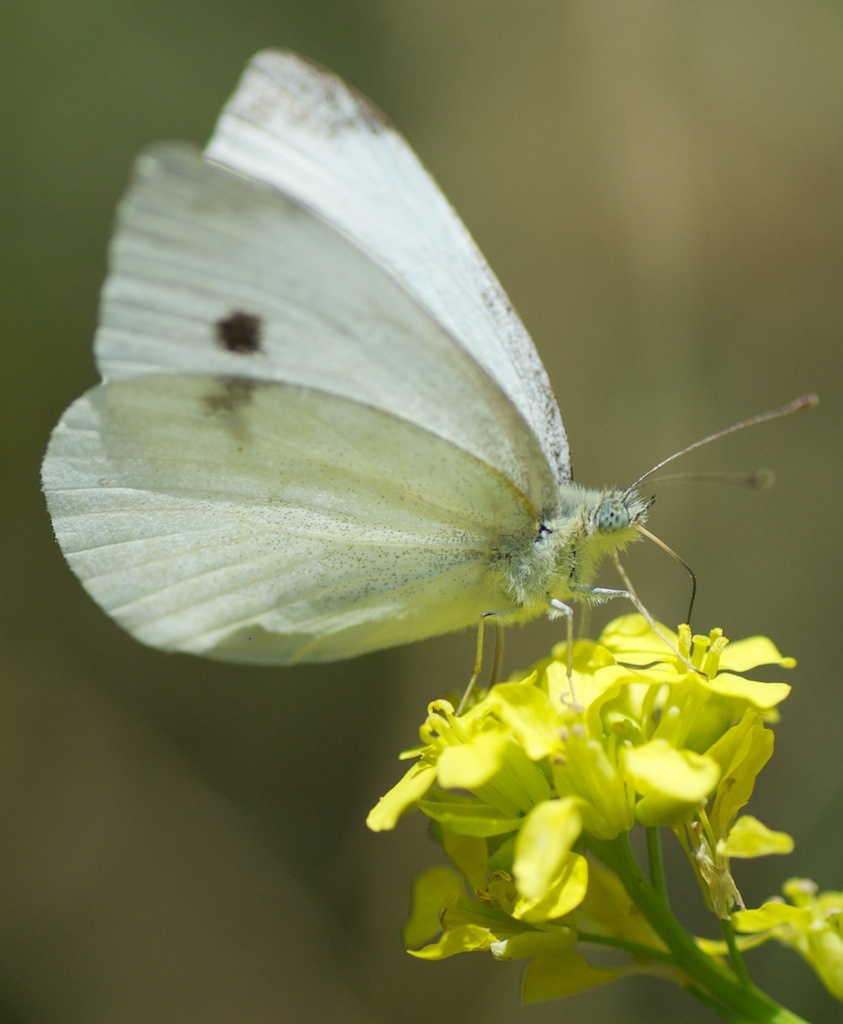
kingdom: Animalia
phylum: Arthropoda
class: Insecta
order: Lepidoptera
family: Pieridae
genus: Pieris
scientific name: Pieris rapae
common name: Small white
